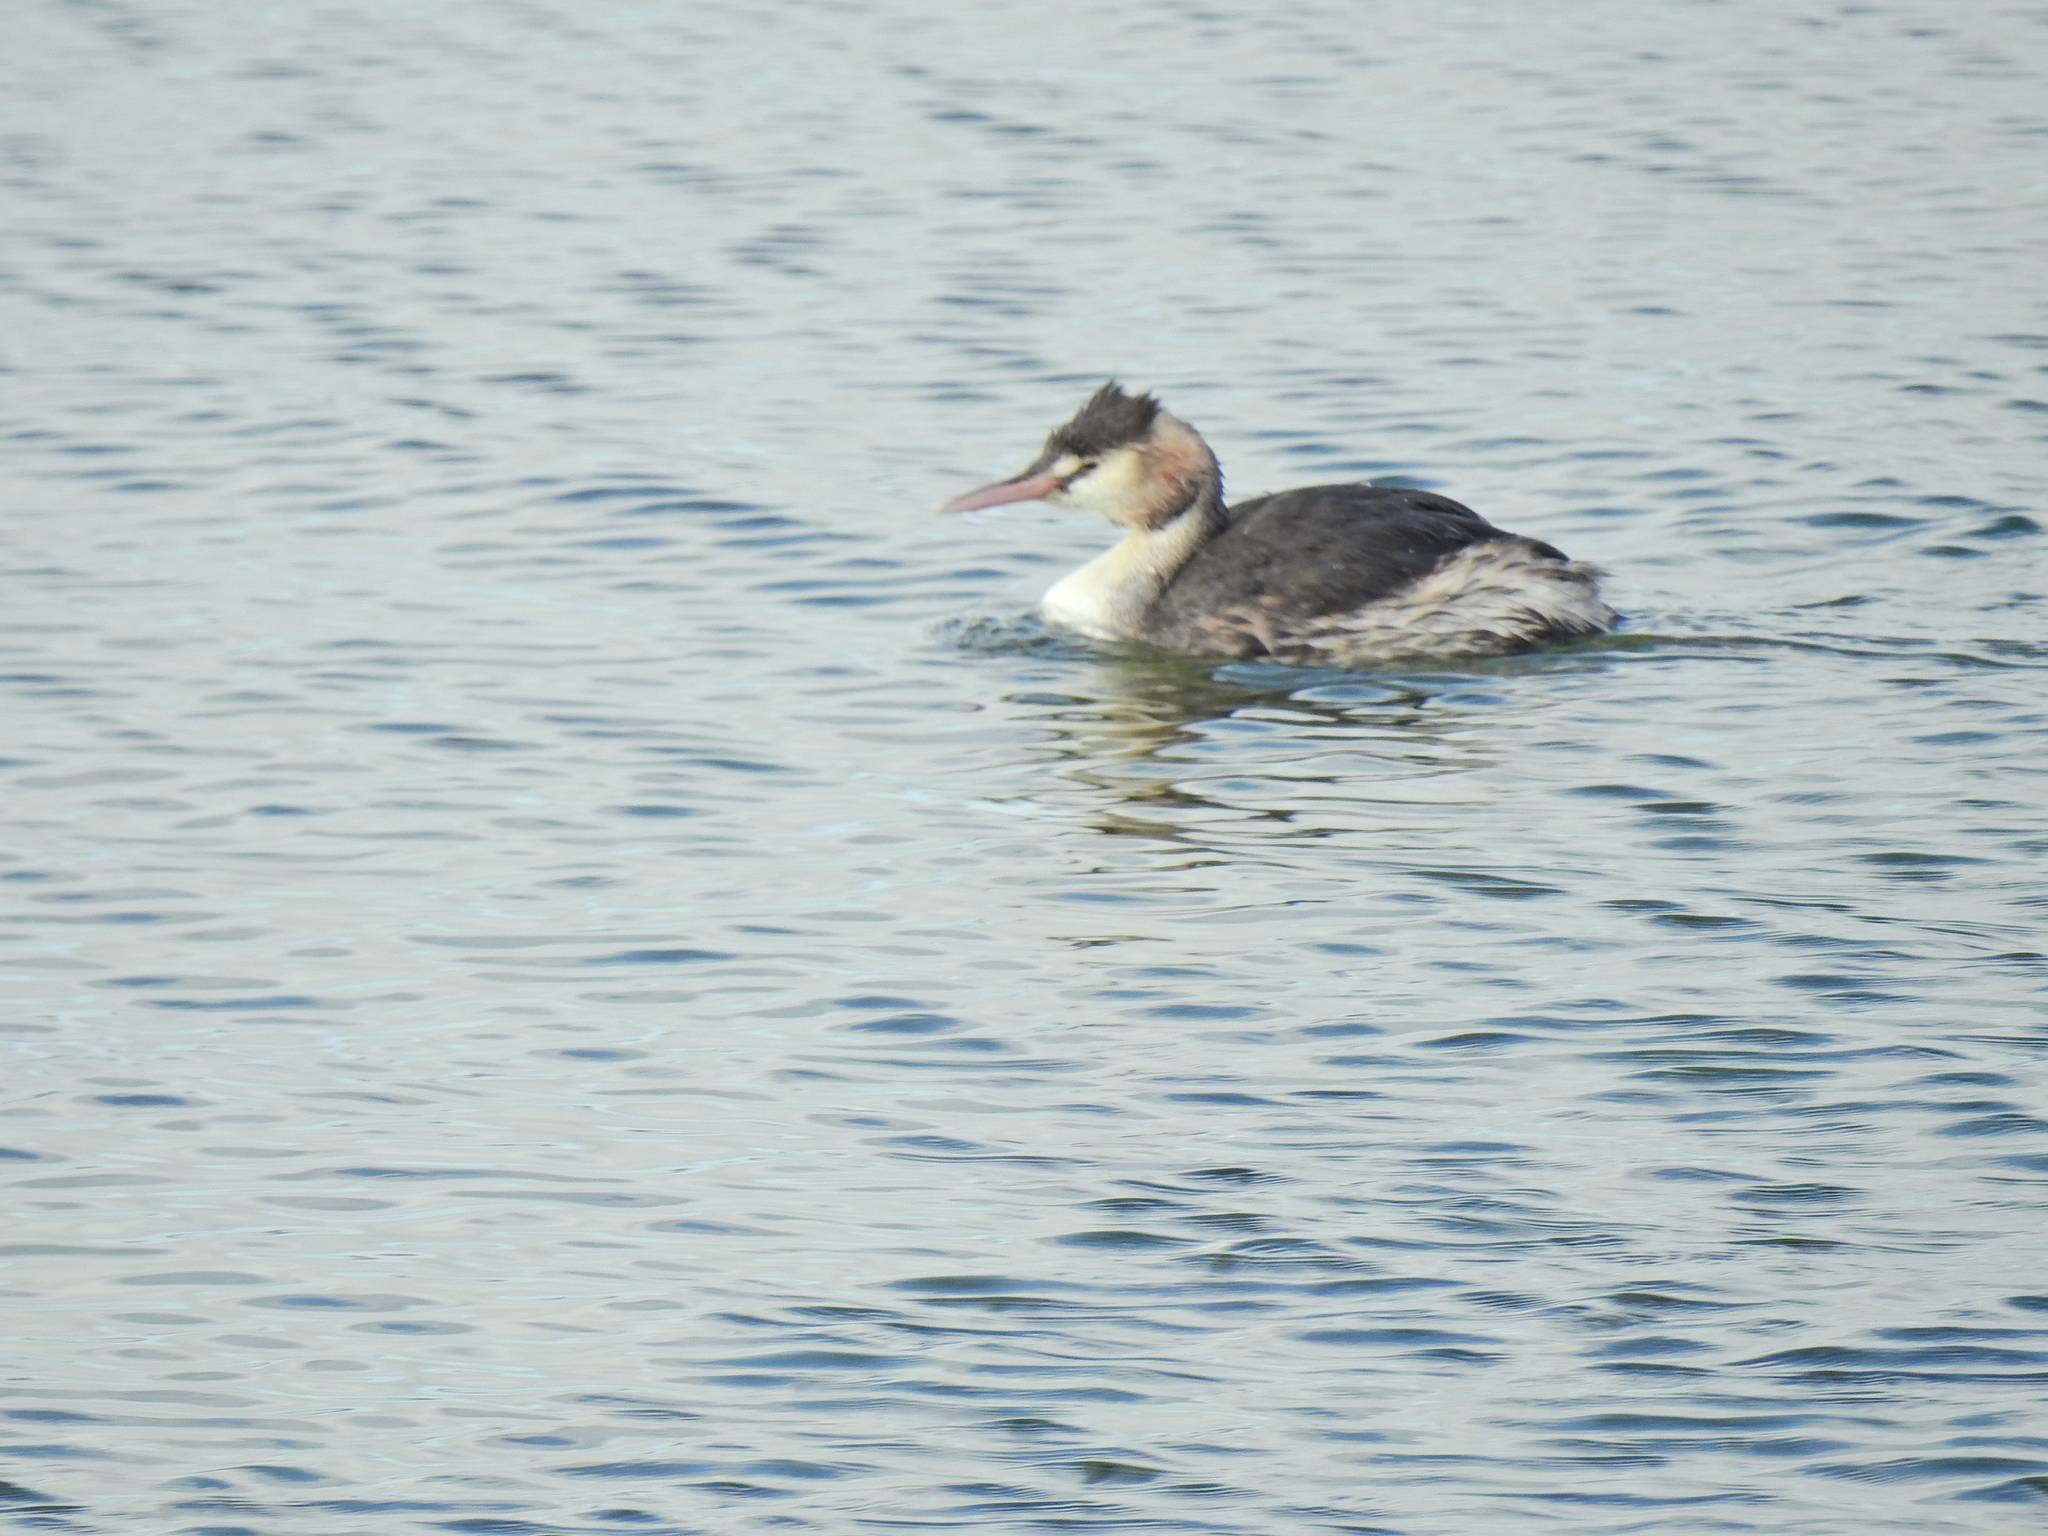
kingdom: Animalia
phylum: Chordata
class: Aves
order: Podicipediformes
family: Podicipedidae
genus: Podiceps
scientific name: Podiceps cristatus
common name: Great crested grebe
